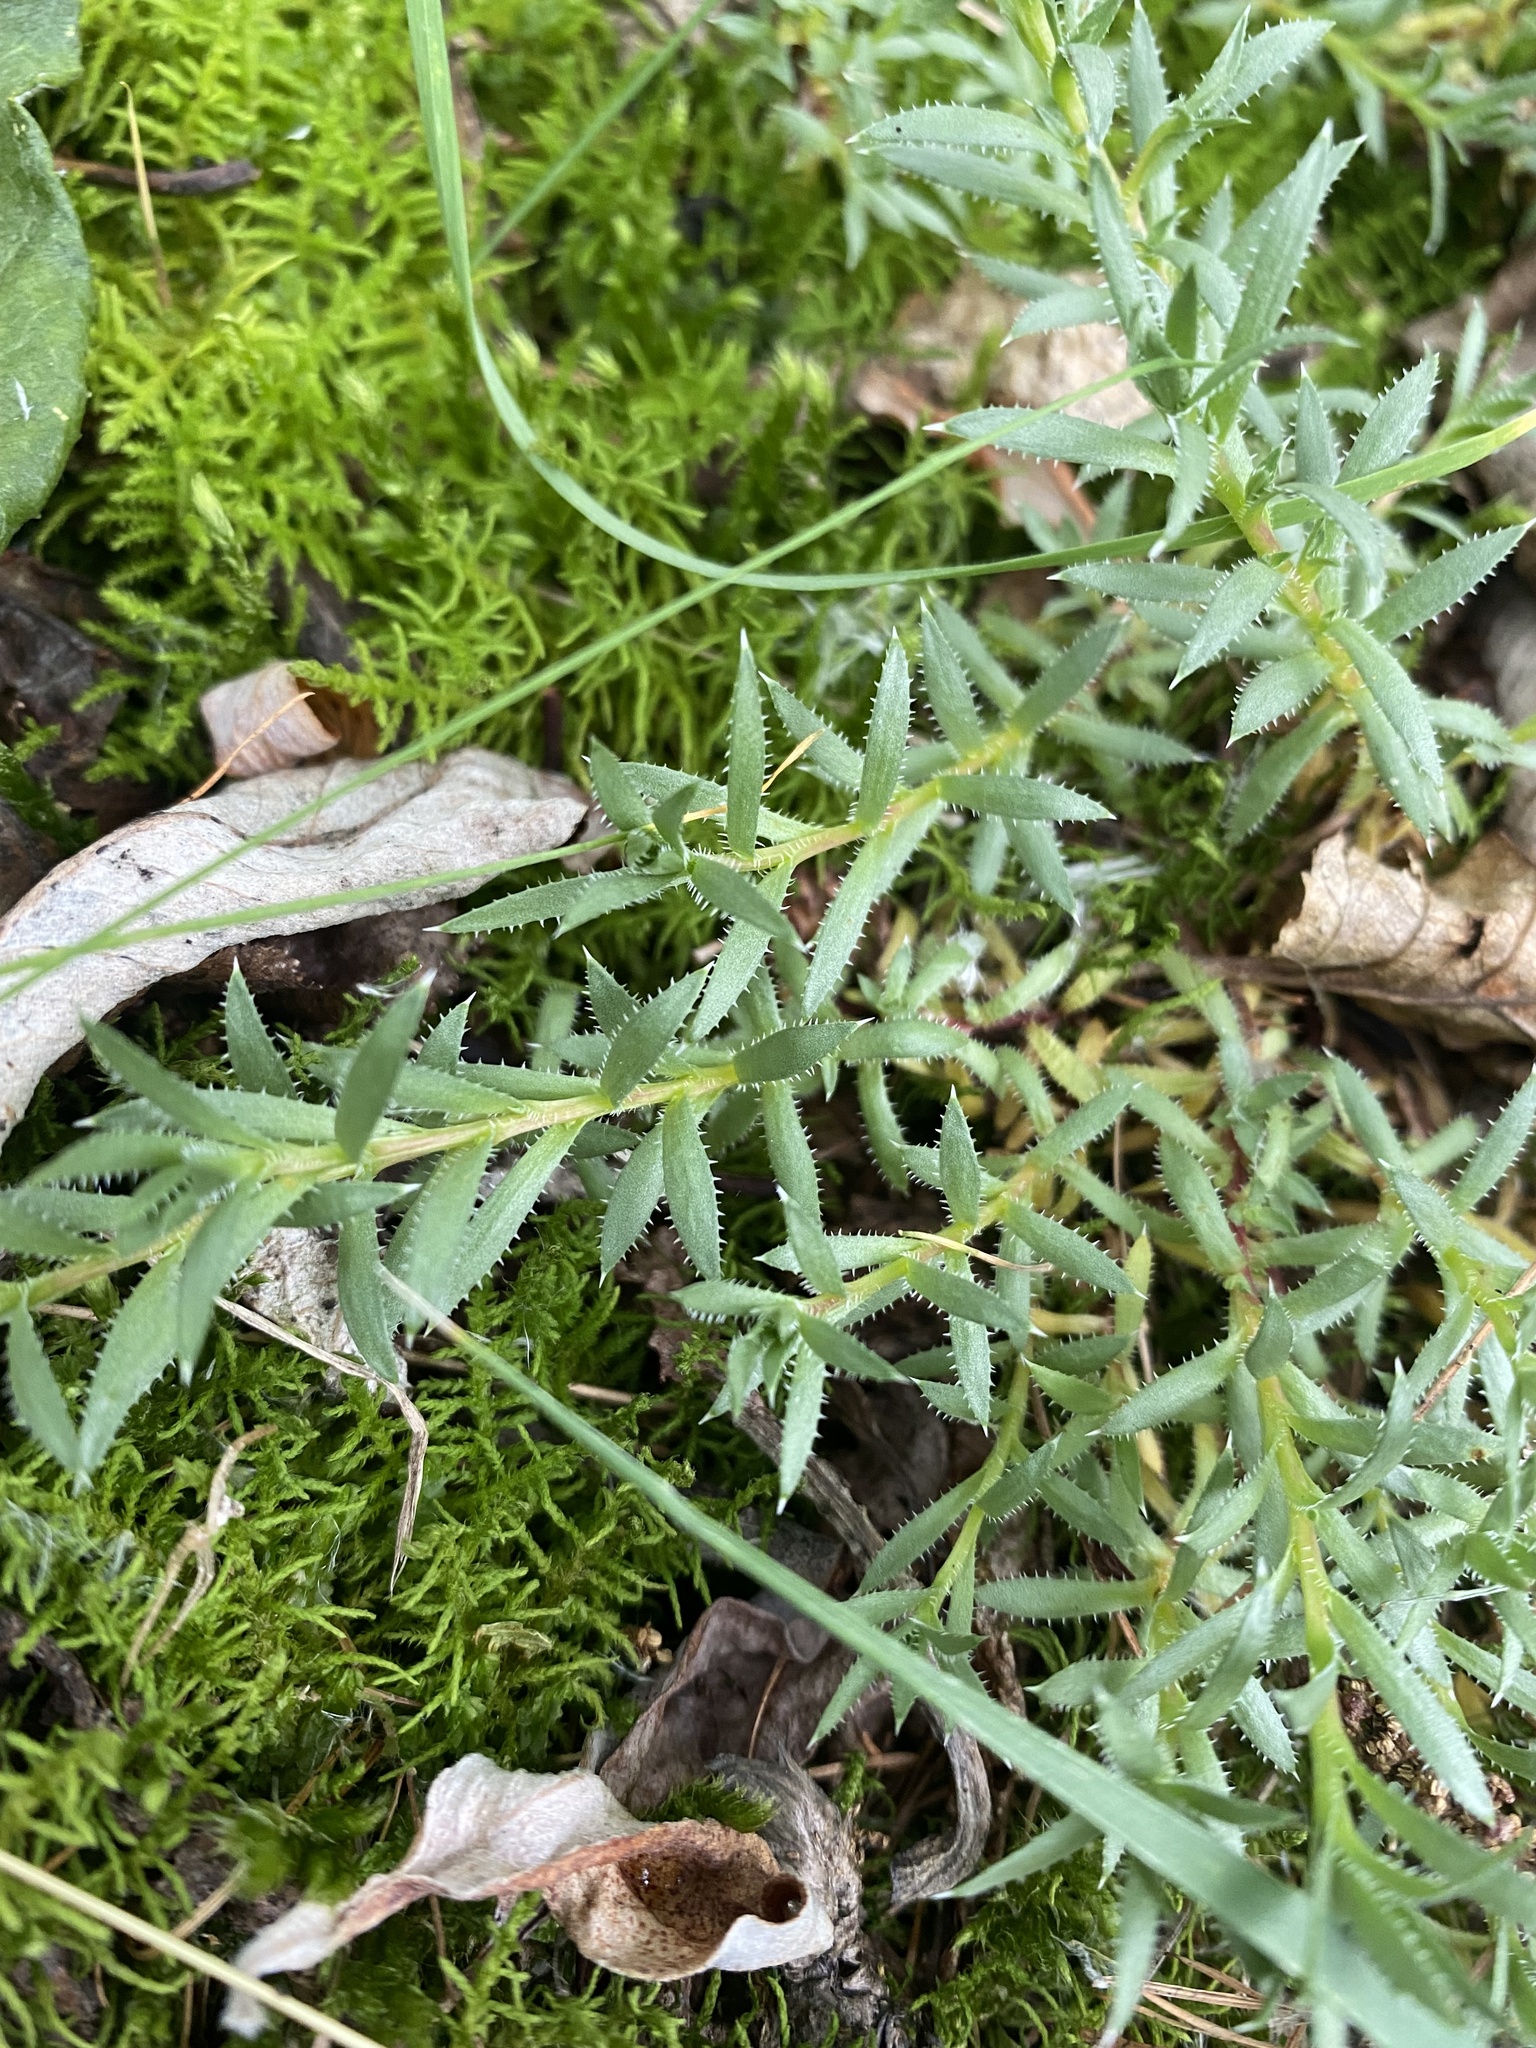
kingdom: Plantae
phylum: Tracheophyta
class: Magnoliopsida
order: Saxifragales
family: Saxifragaceae
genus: Saxifraga
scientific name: Saxifraga bronchialis
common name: Matted saxifrage
